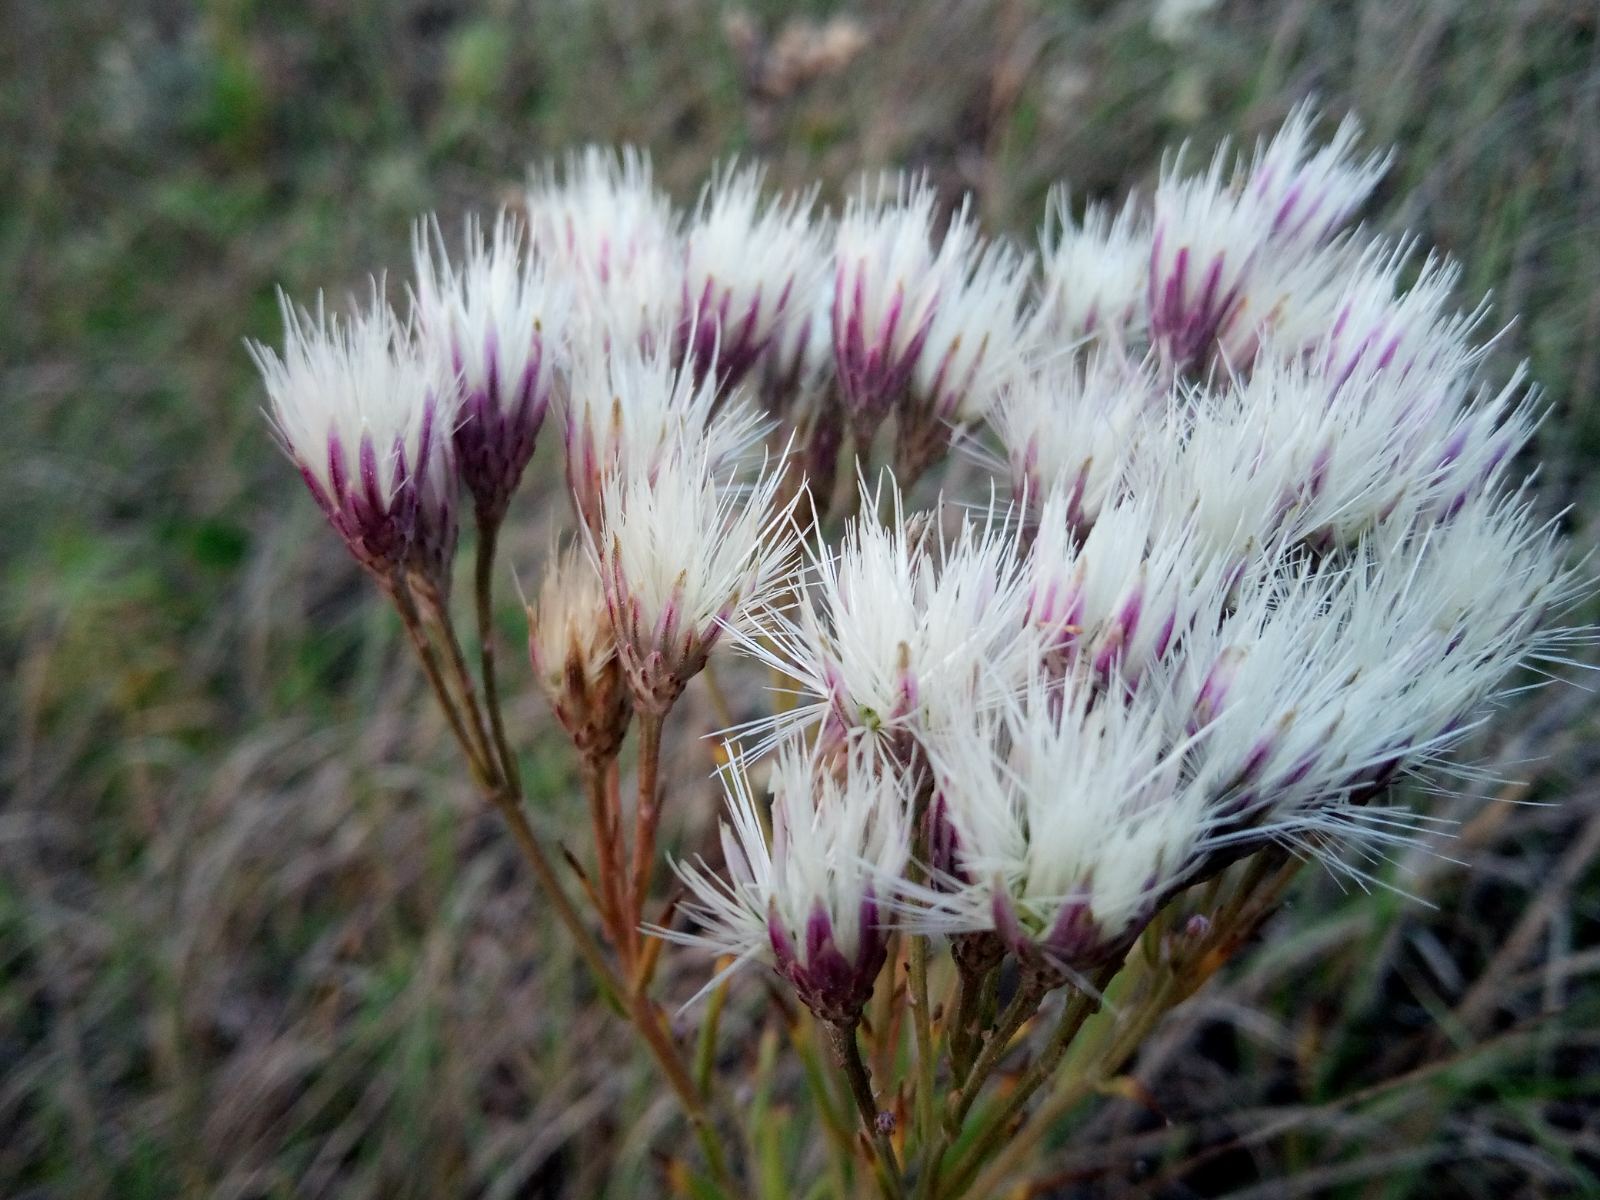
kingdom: Plantae
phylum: Tracheophyta
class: Magnoliopsida
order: Asterales
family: Asteraceae
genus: Jurinea
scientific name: Jurinea multiflora
